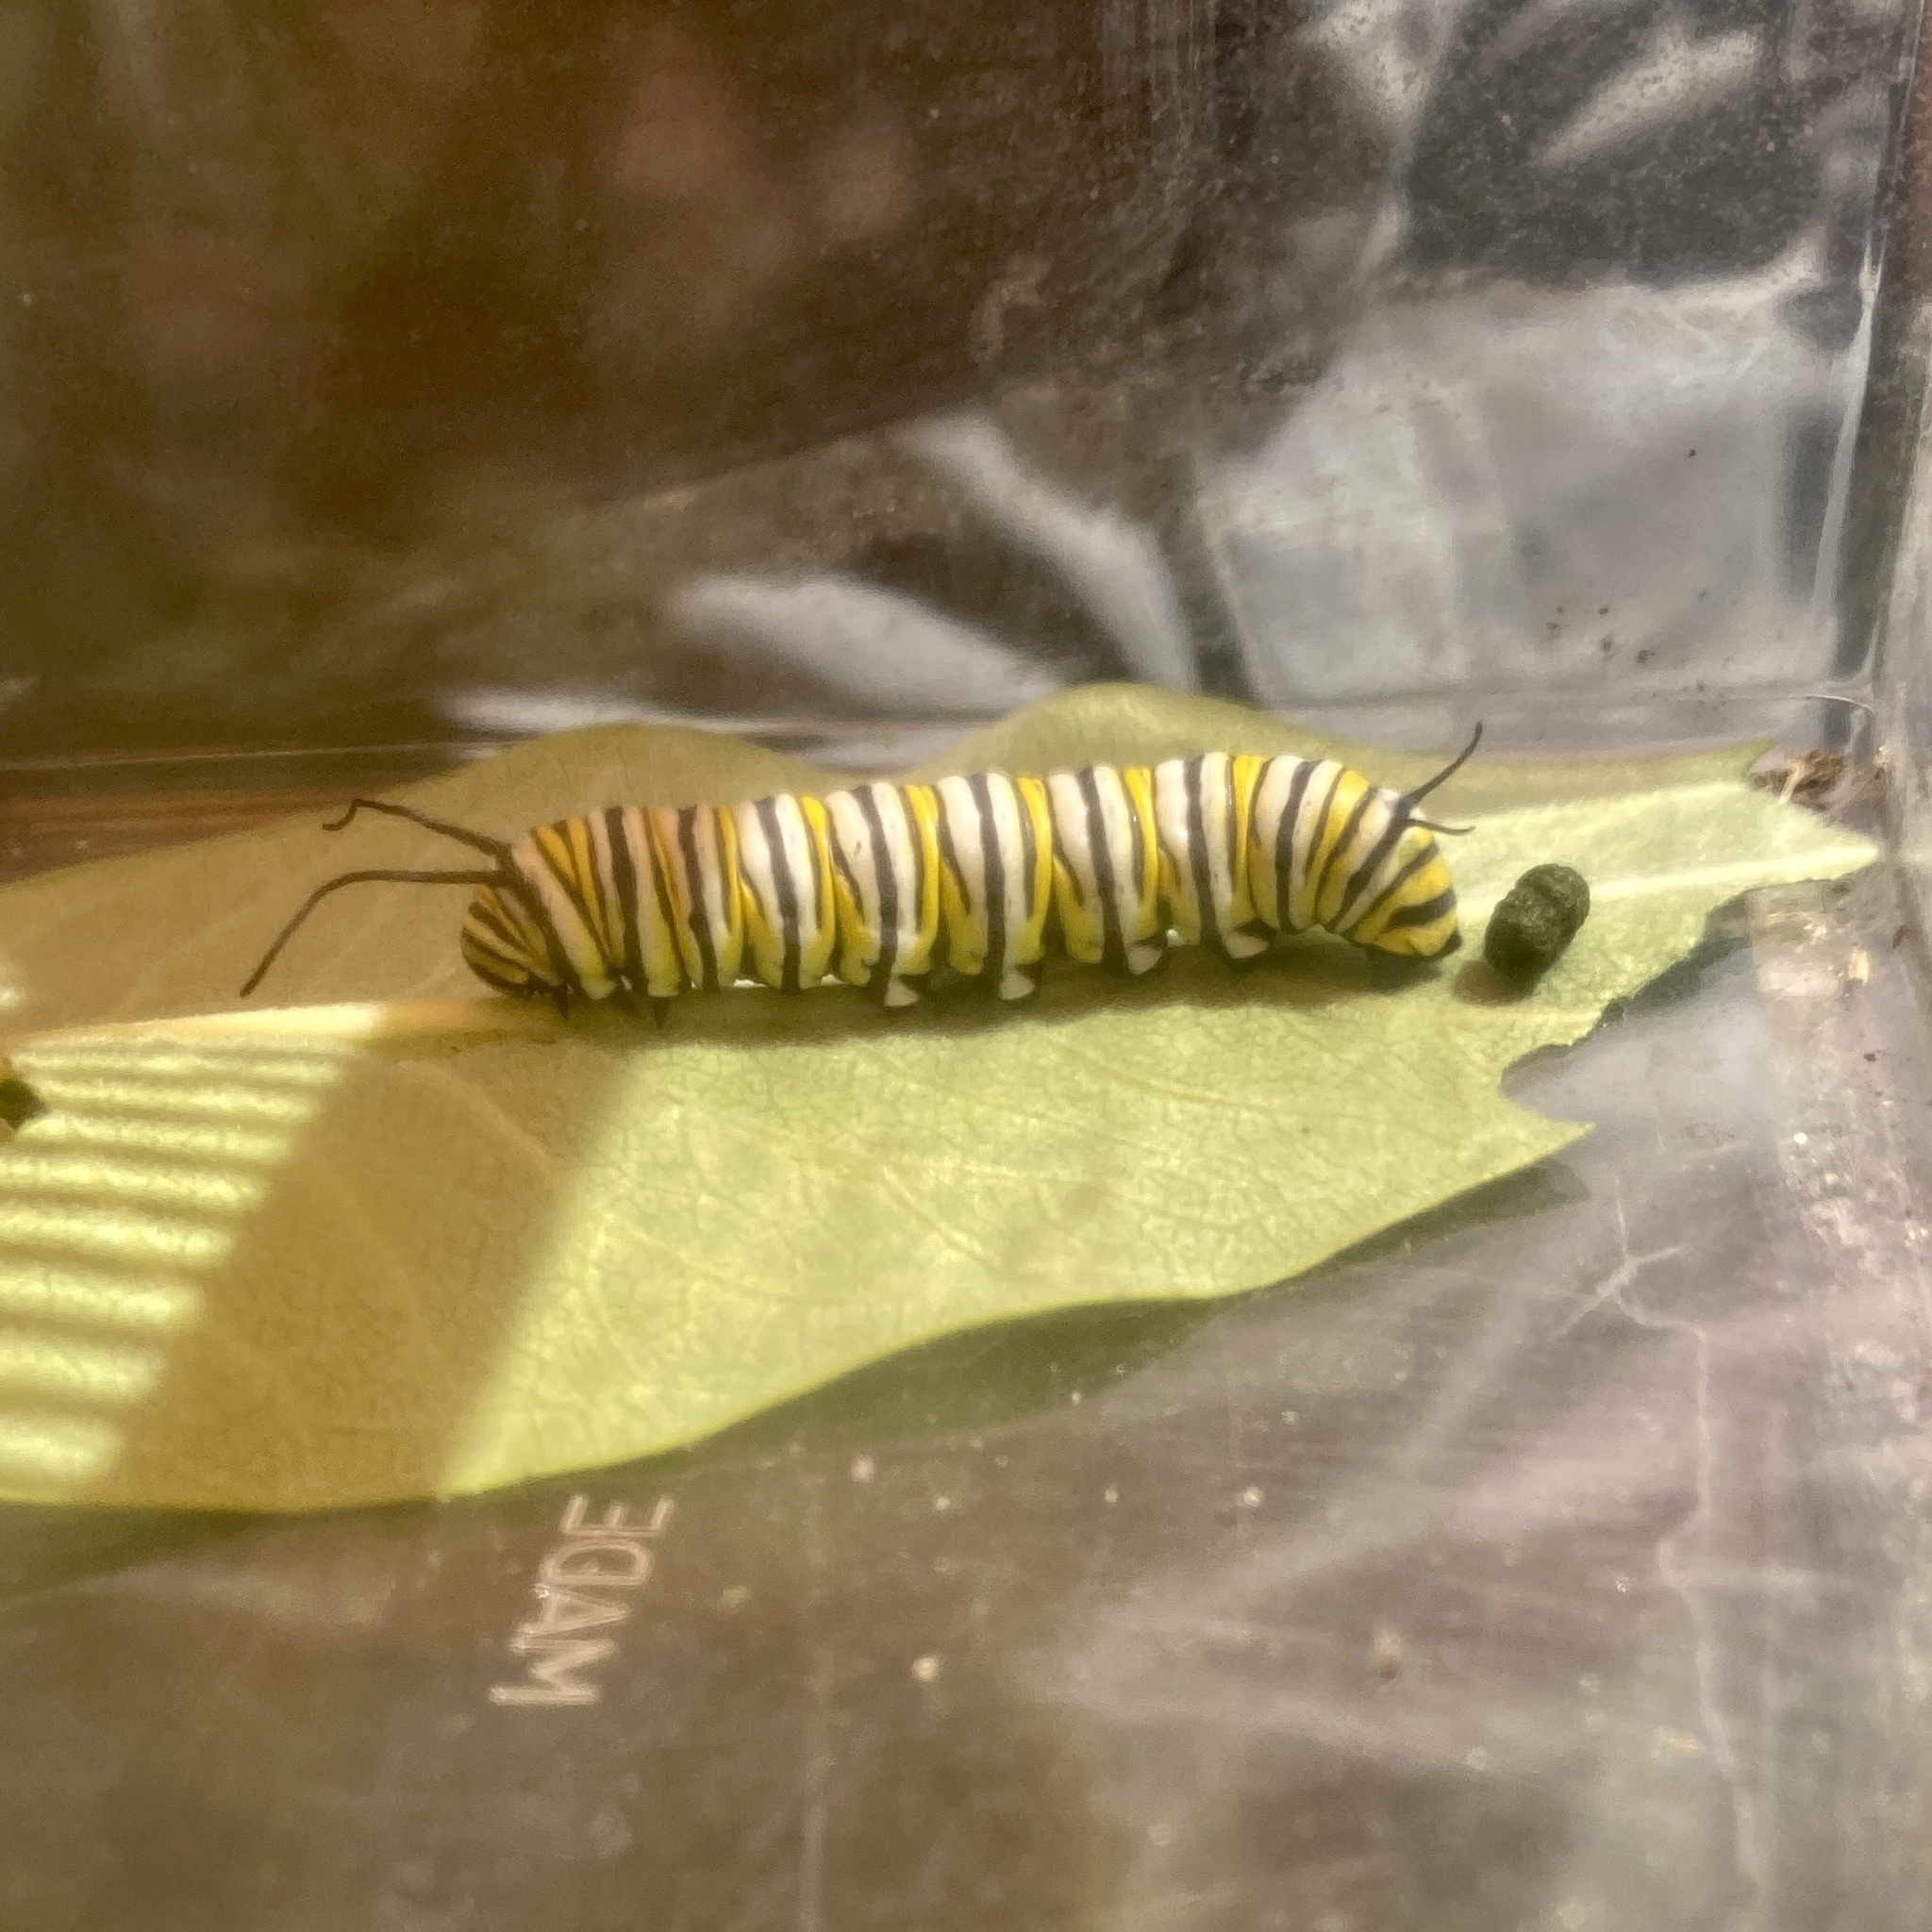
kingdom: Animalia
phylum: Arthropoda
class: Insecta
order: Lepidoptera
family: Nymphalidae
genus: Danaus
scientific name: Danaus plexippus
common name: Monarch
